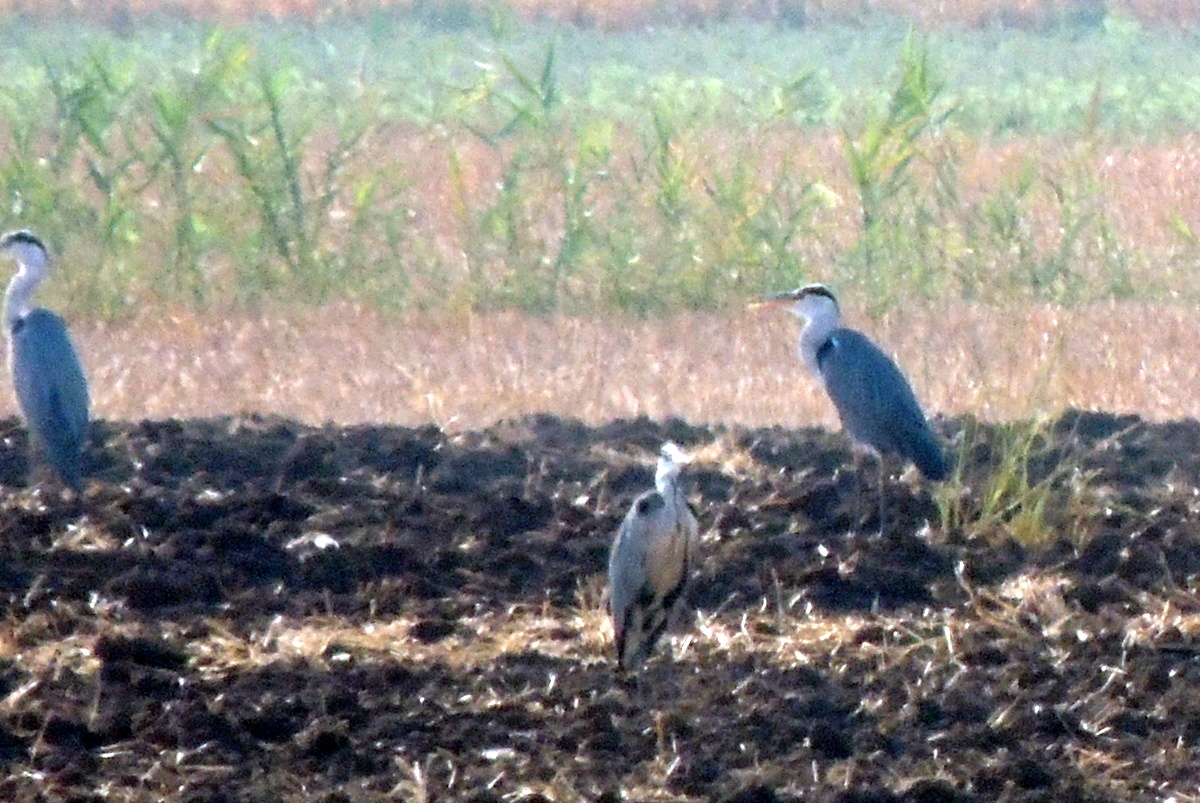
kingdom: Animalia
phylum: Chordata
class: Aves
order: Pelecaniformes
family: Ardeidae
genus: Ardea
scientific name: Ardea cinerea
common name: Grey heron
